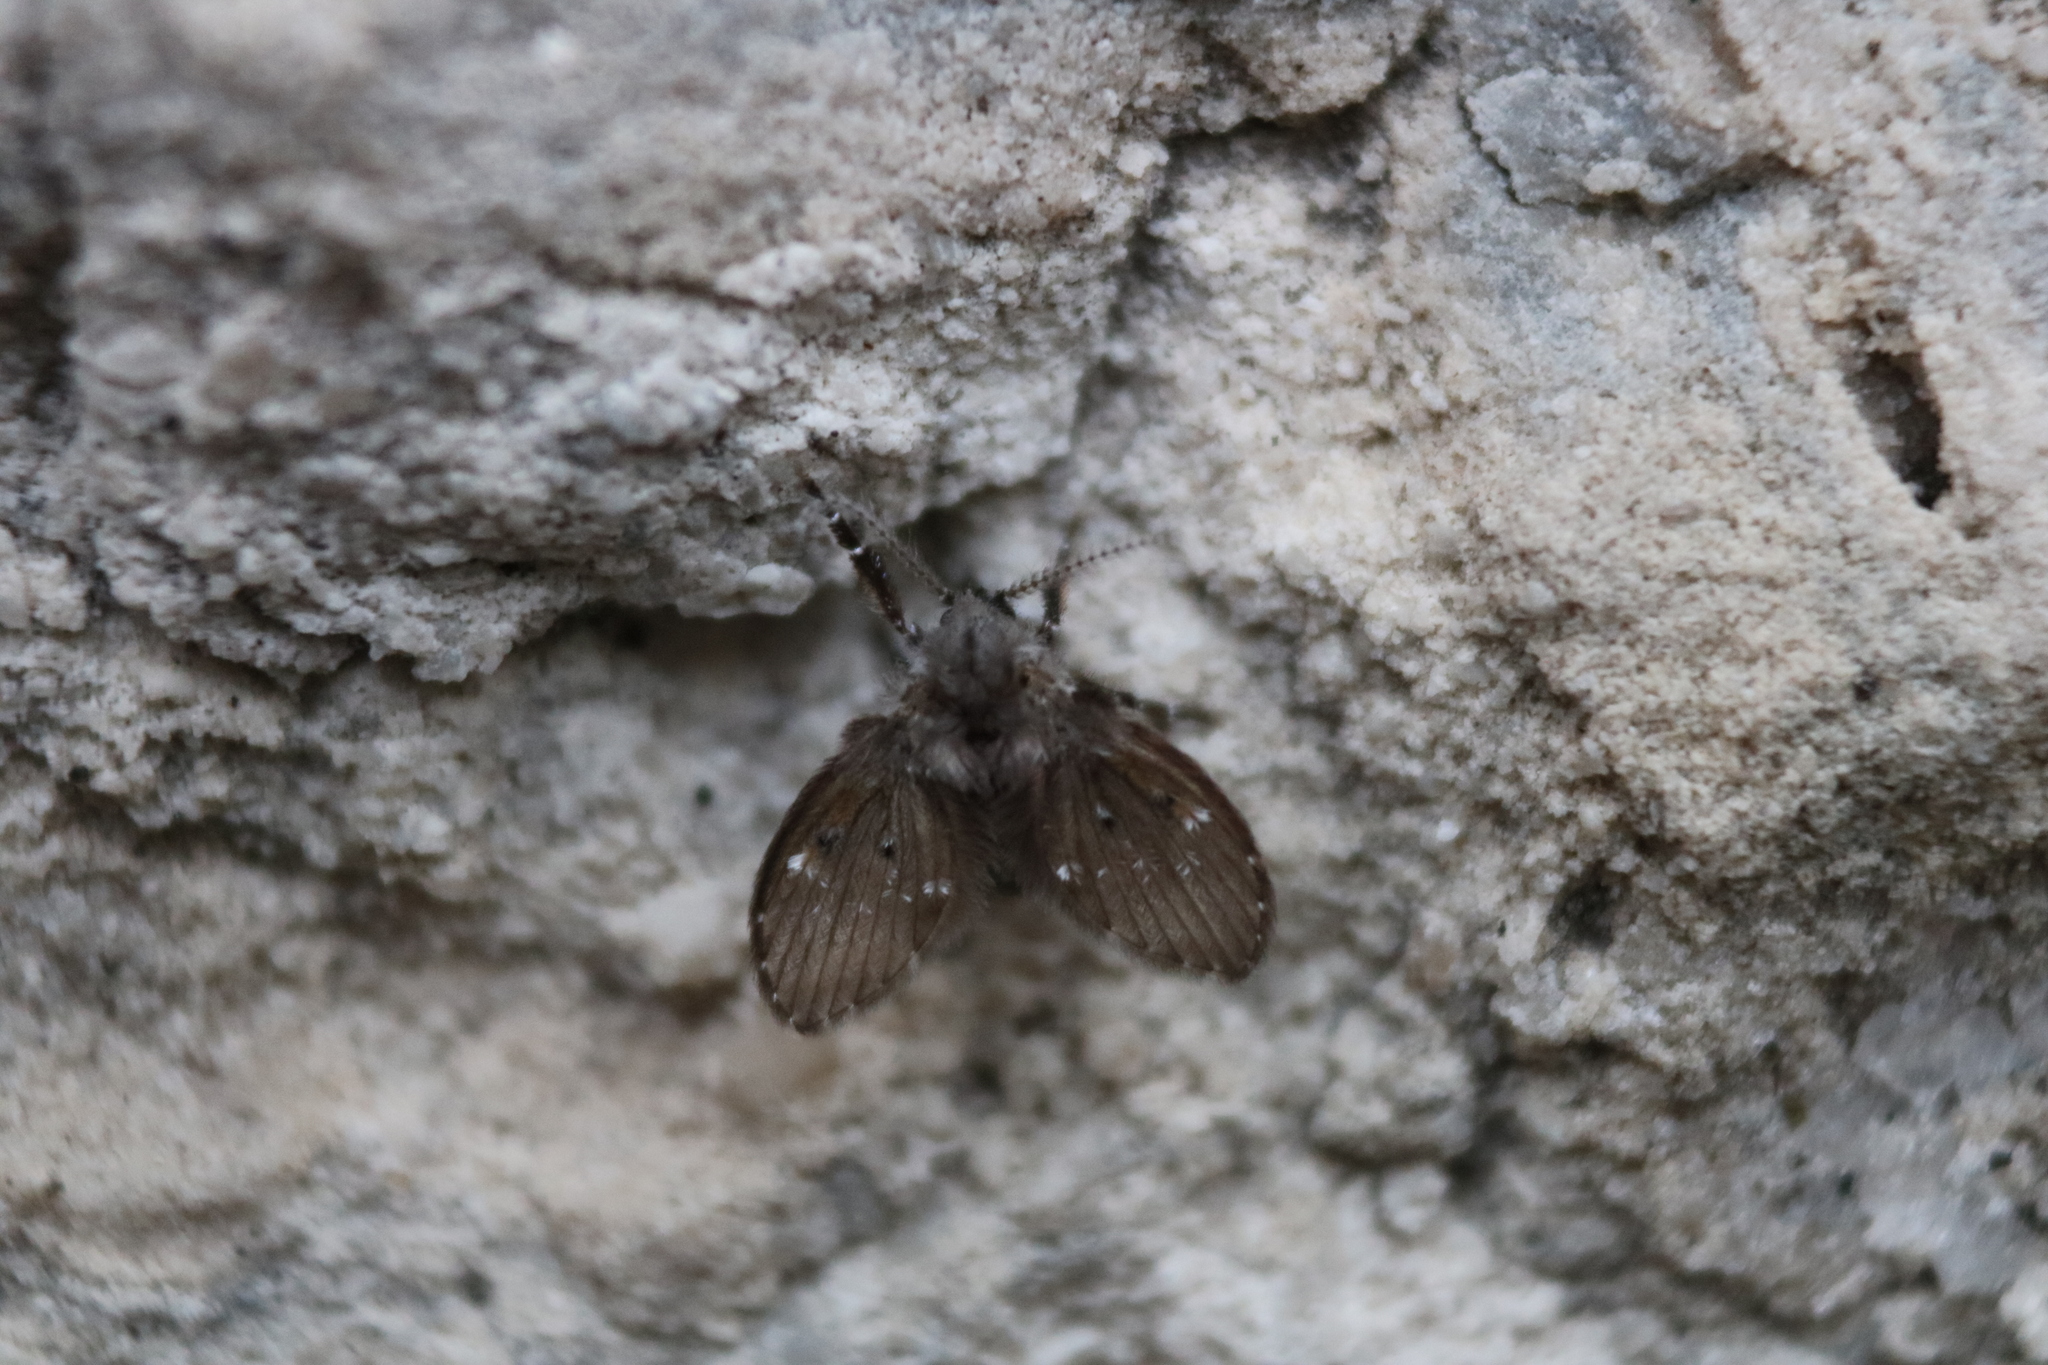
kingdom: Animalia
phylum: Arthropoda
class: Insecta
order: Diptera
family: Psychodidae
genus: Clogmia
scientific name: Clogmia albipunctatus
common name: White-spotted moth fly
